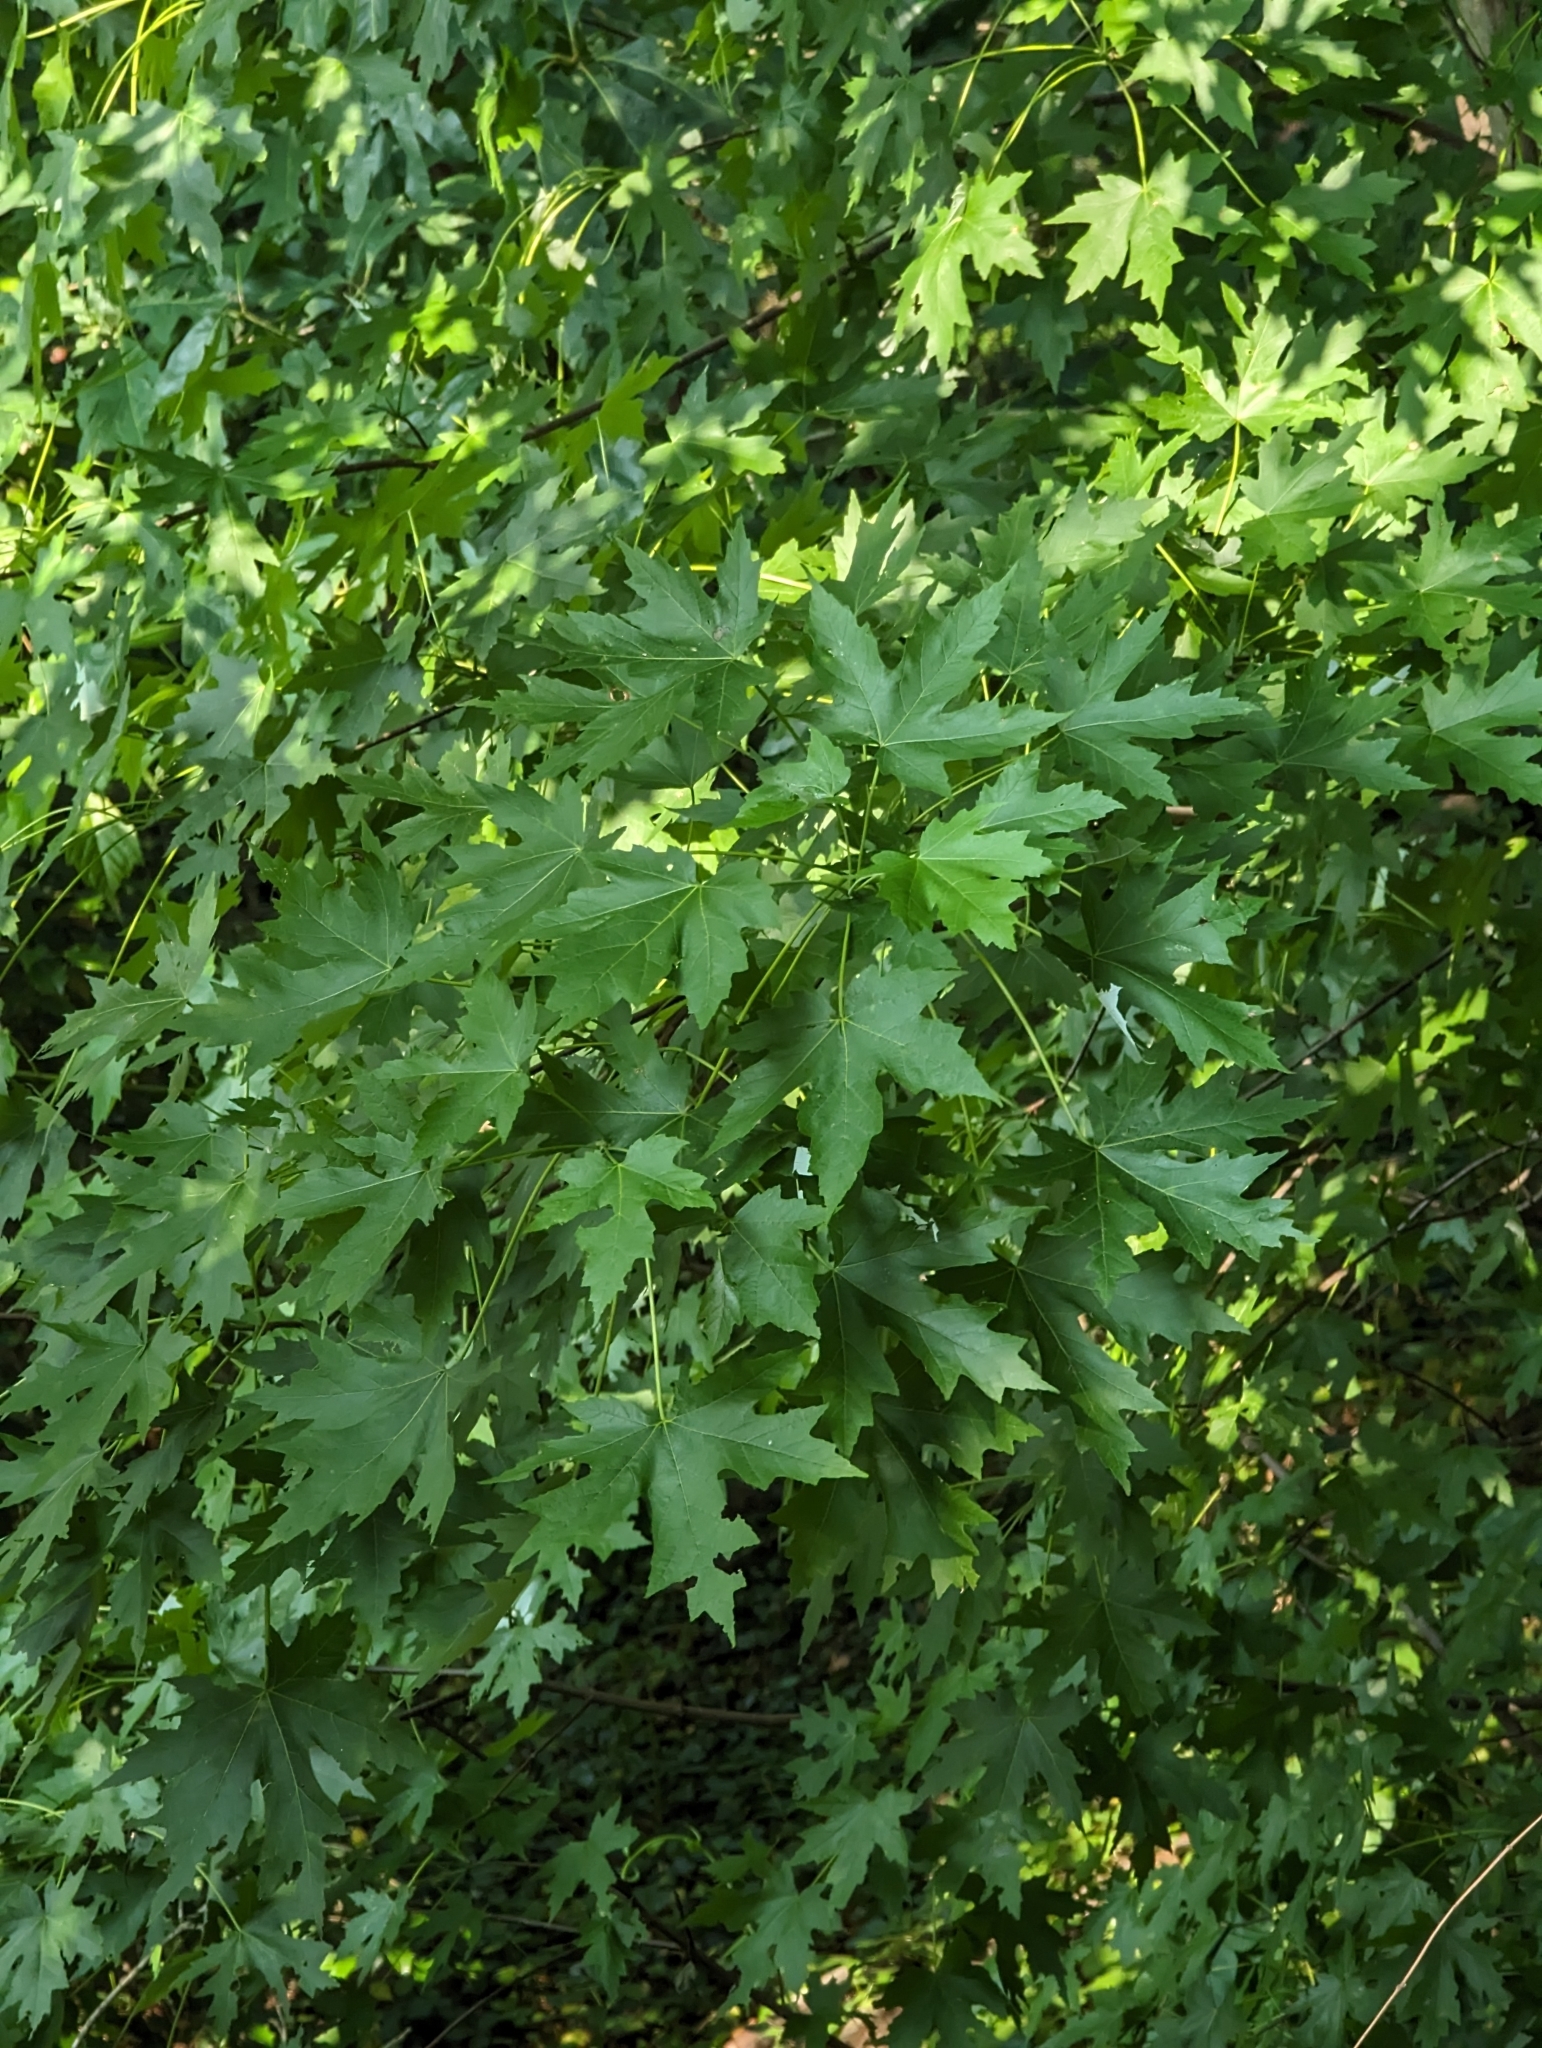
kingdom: Plantae
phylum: Tracheophyta
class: Magnoliopsida
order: Sapindales
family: Sapindaceae
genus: Acer
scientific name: Acer saccharinum
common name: Silver maple
